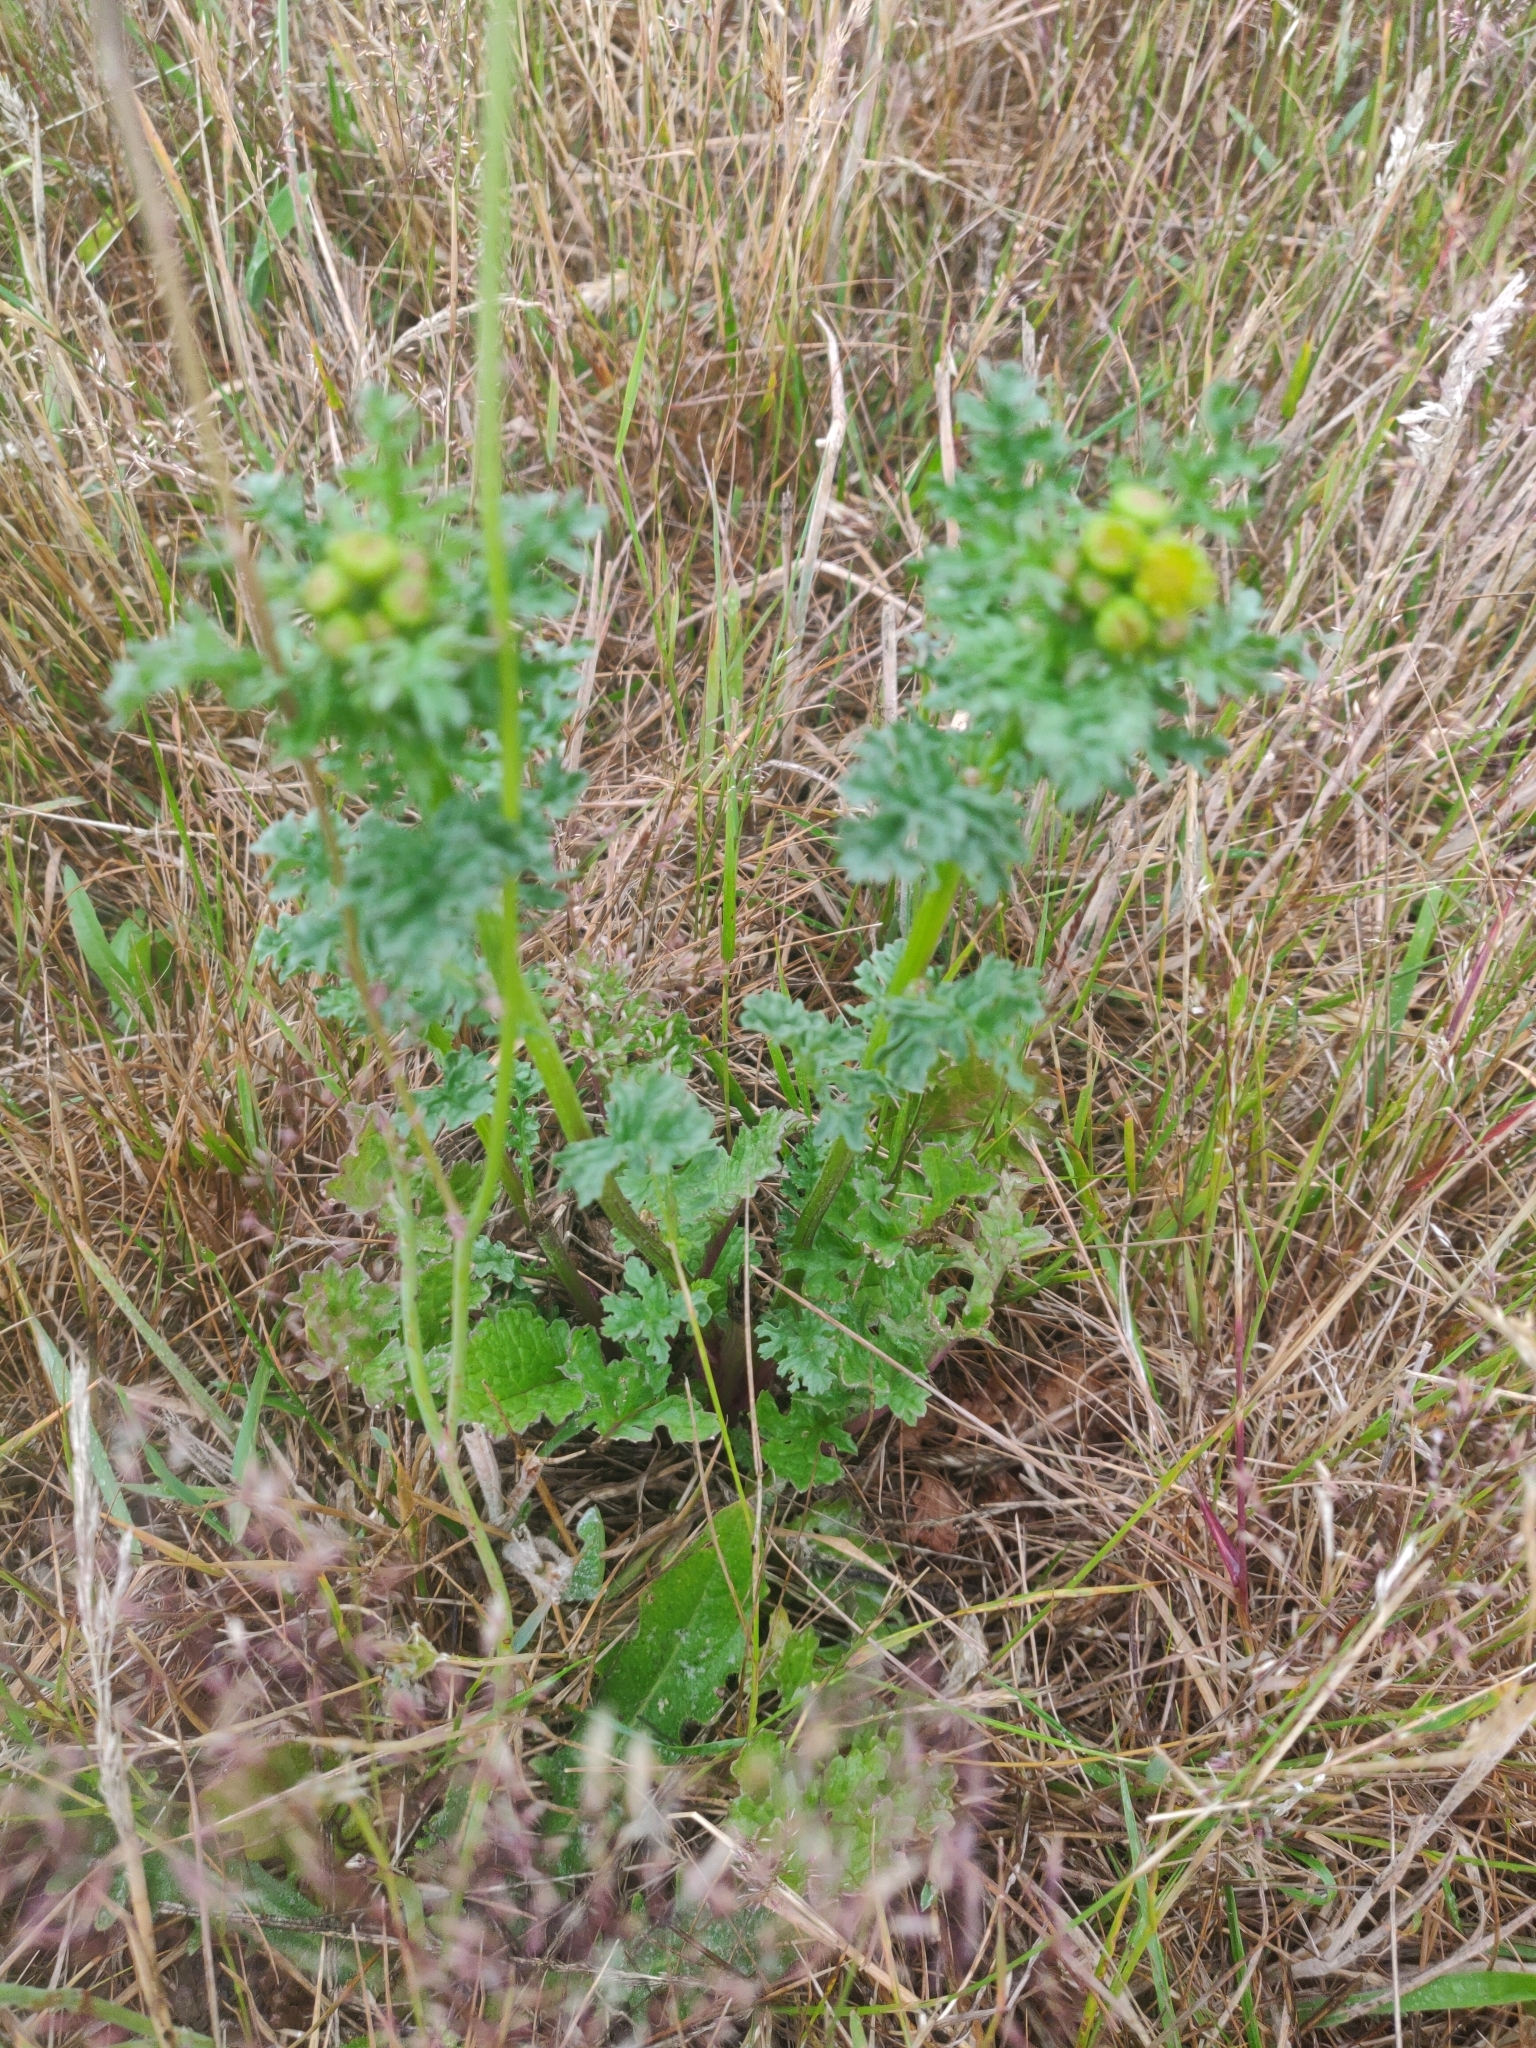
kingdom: Plantae
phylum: Tracheophyta
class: Magnoliopsida
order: Asterales
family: Asteraceae
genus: Jacobaea
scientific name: Jacobaea vulgaris
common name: Stinking willie
